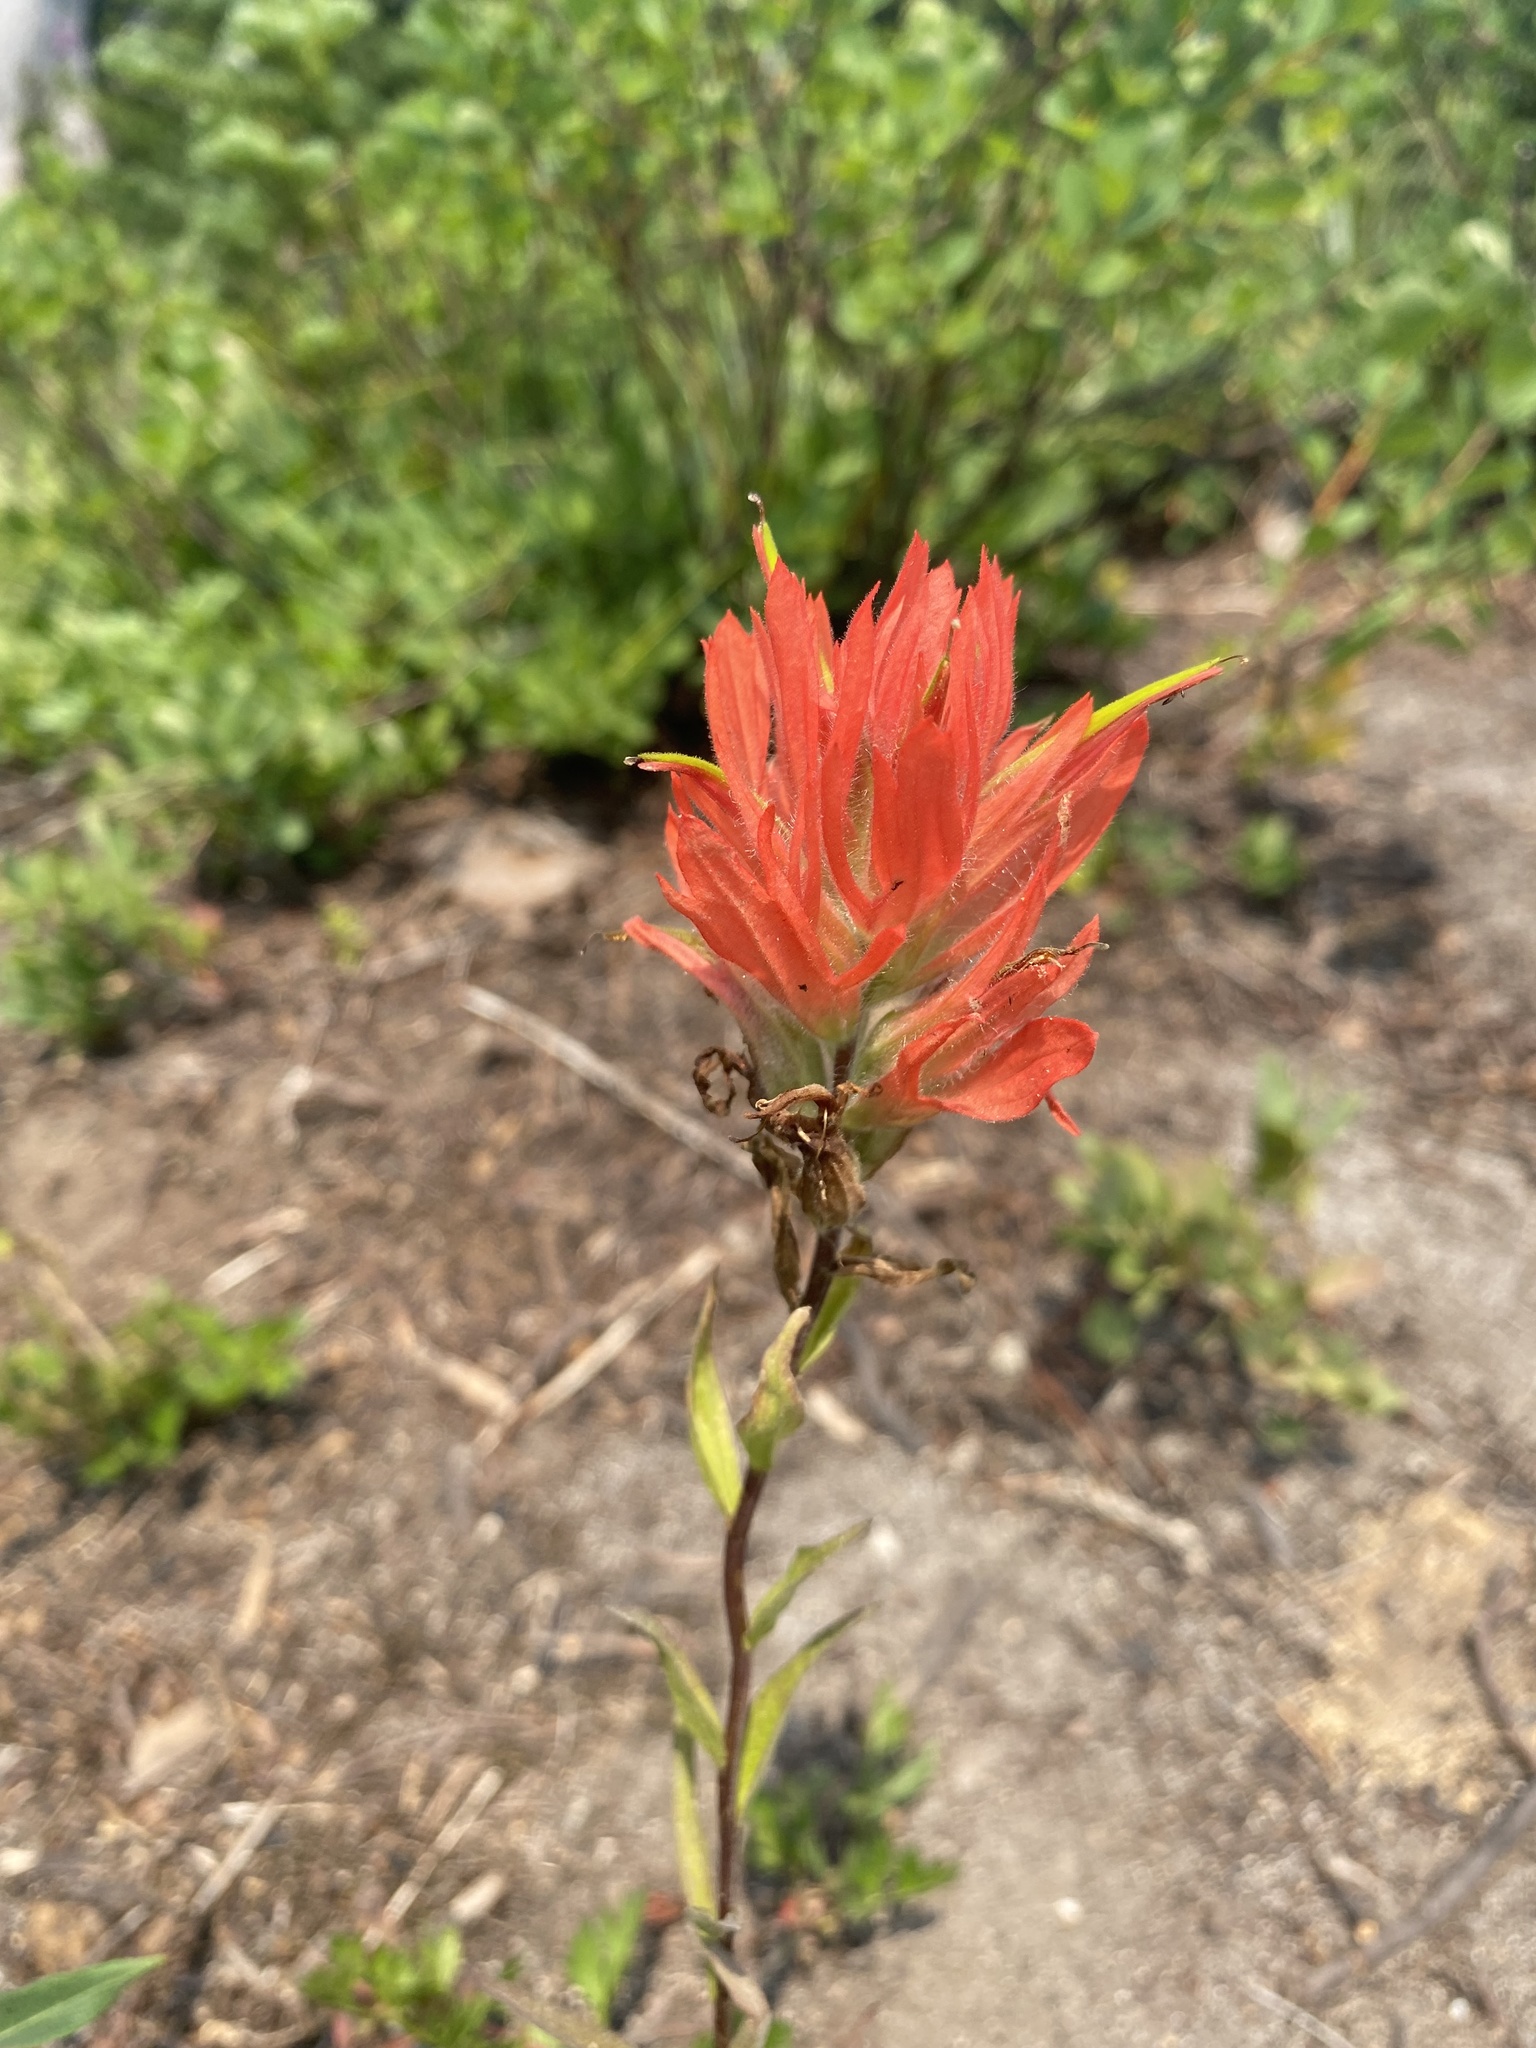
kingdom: Plantae
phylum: Tracheophyta
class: Magnoliopsida
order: Lamiales
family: Orobanchaceae
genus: Castilleja
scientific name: Castilleja miniata
